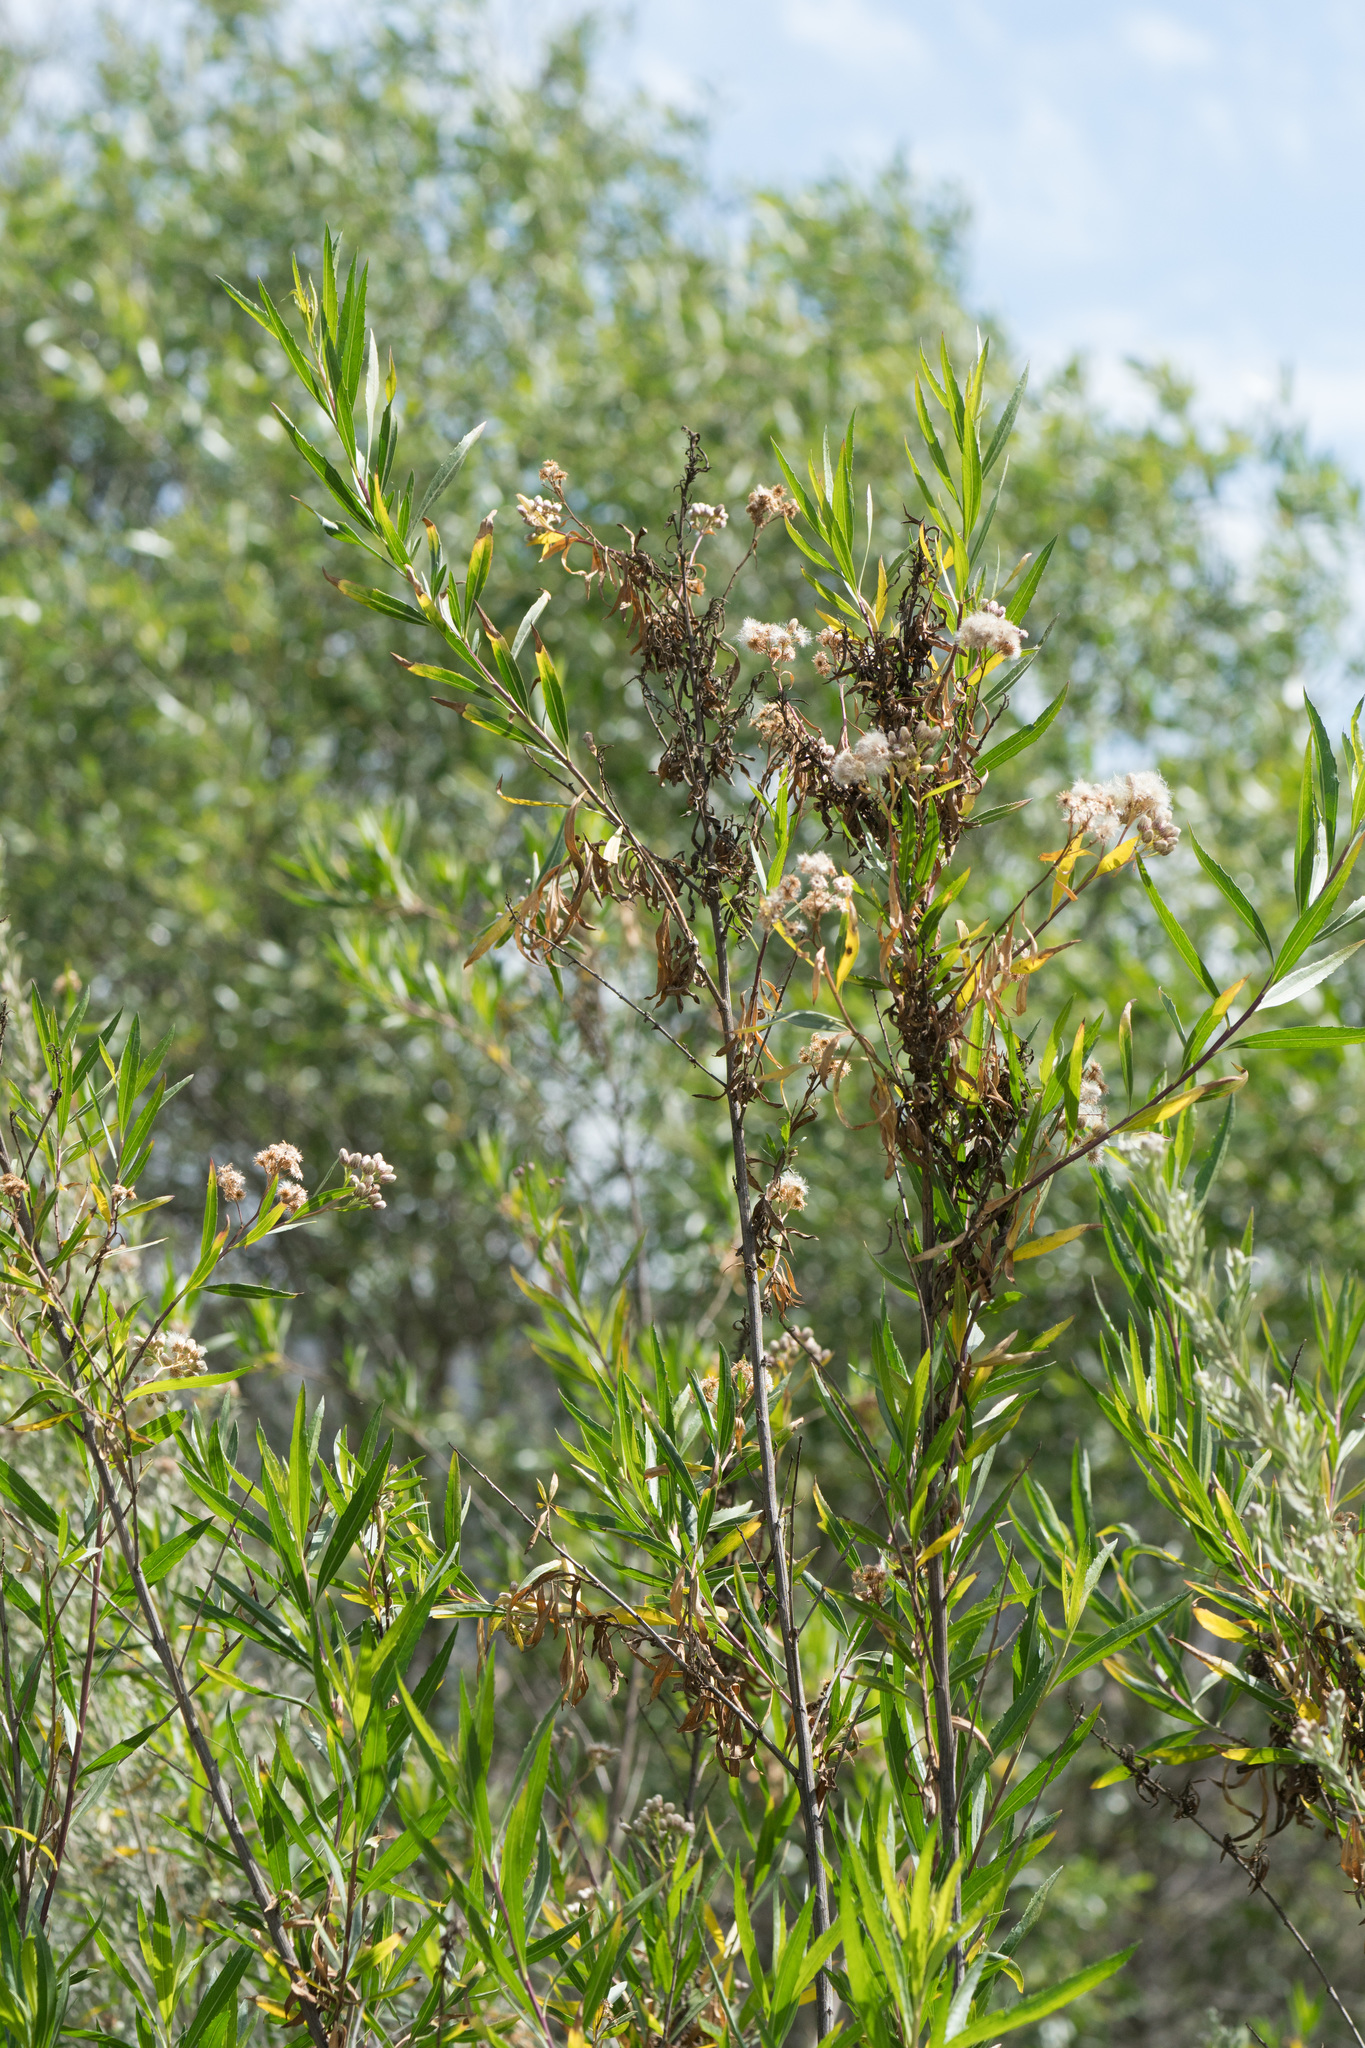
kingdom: Plantae
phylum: Tracheophyta
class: Magnoliopsida
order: Asterales
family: Asteraceae
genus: Baccharis
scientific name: Baccharis salicifolia
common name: Sticky baccharis
